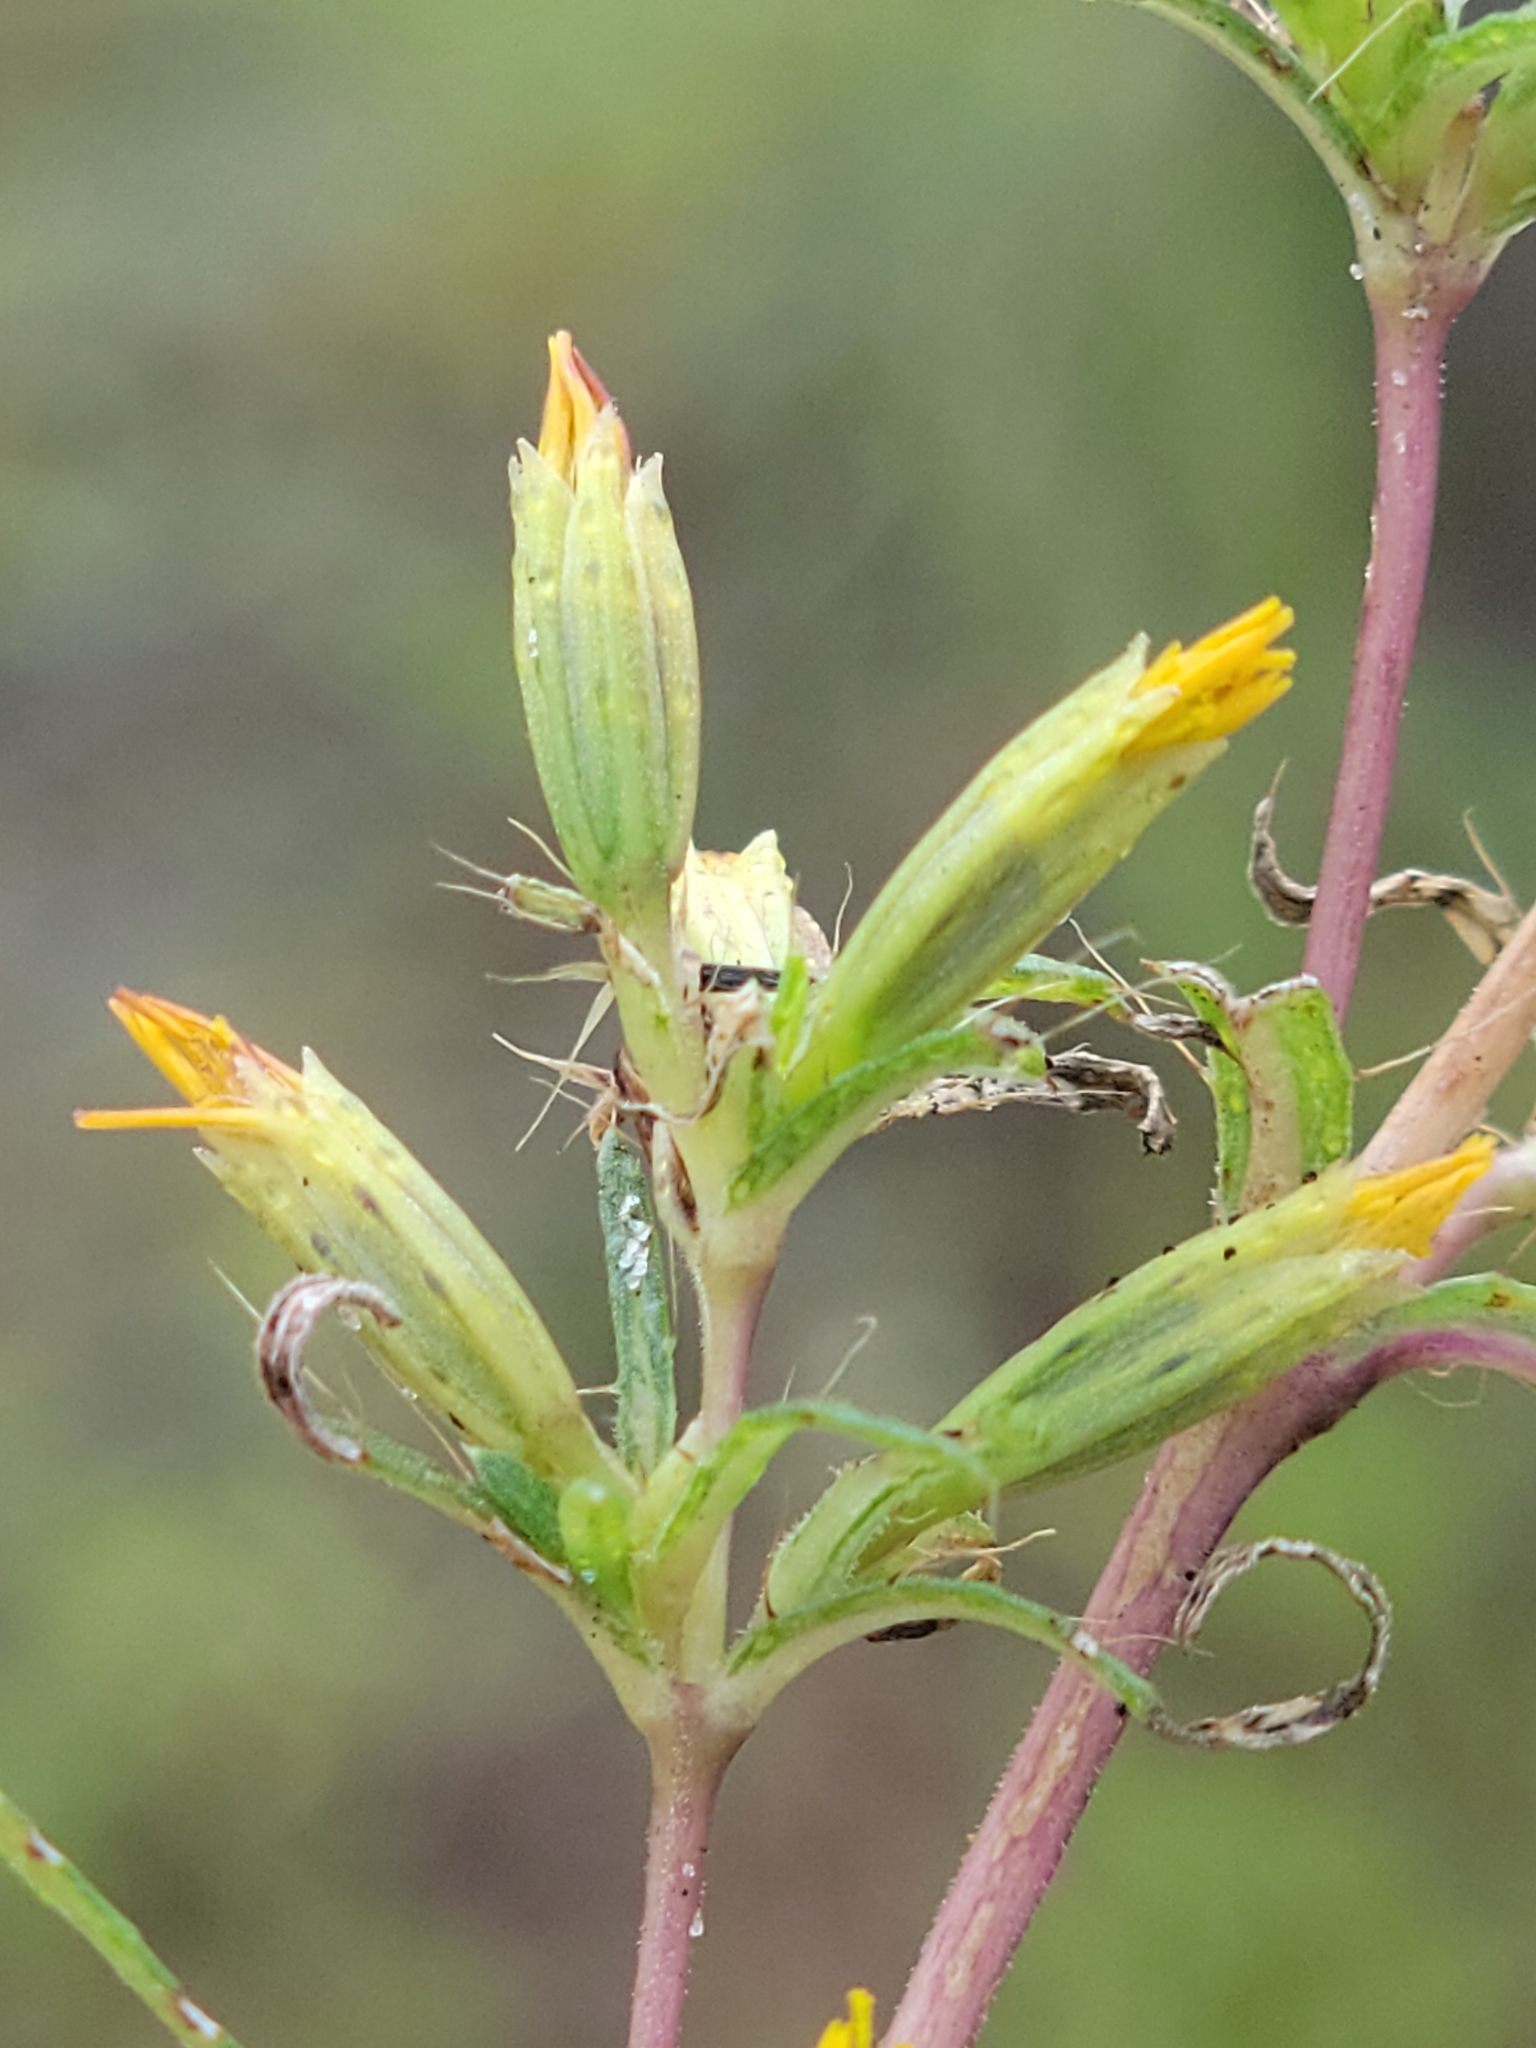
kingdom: Plantae
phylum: Tracheophyta
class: Magnoliopsida
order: Asterales
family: Asteraceae
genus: Pectis
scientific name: Pectis linearifolia
